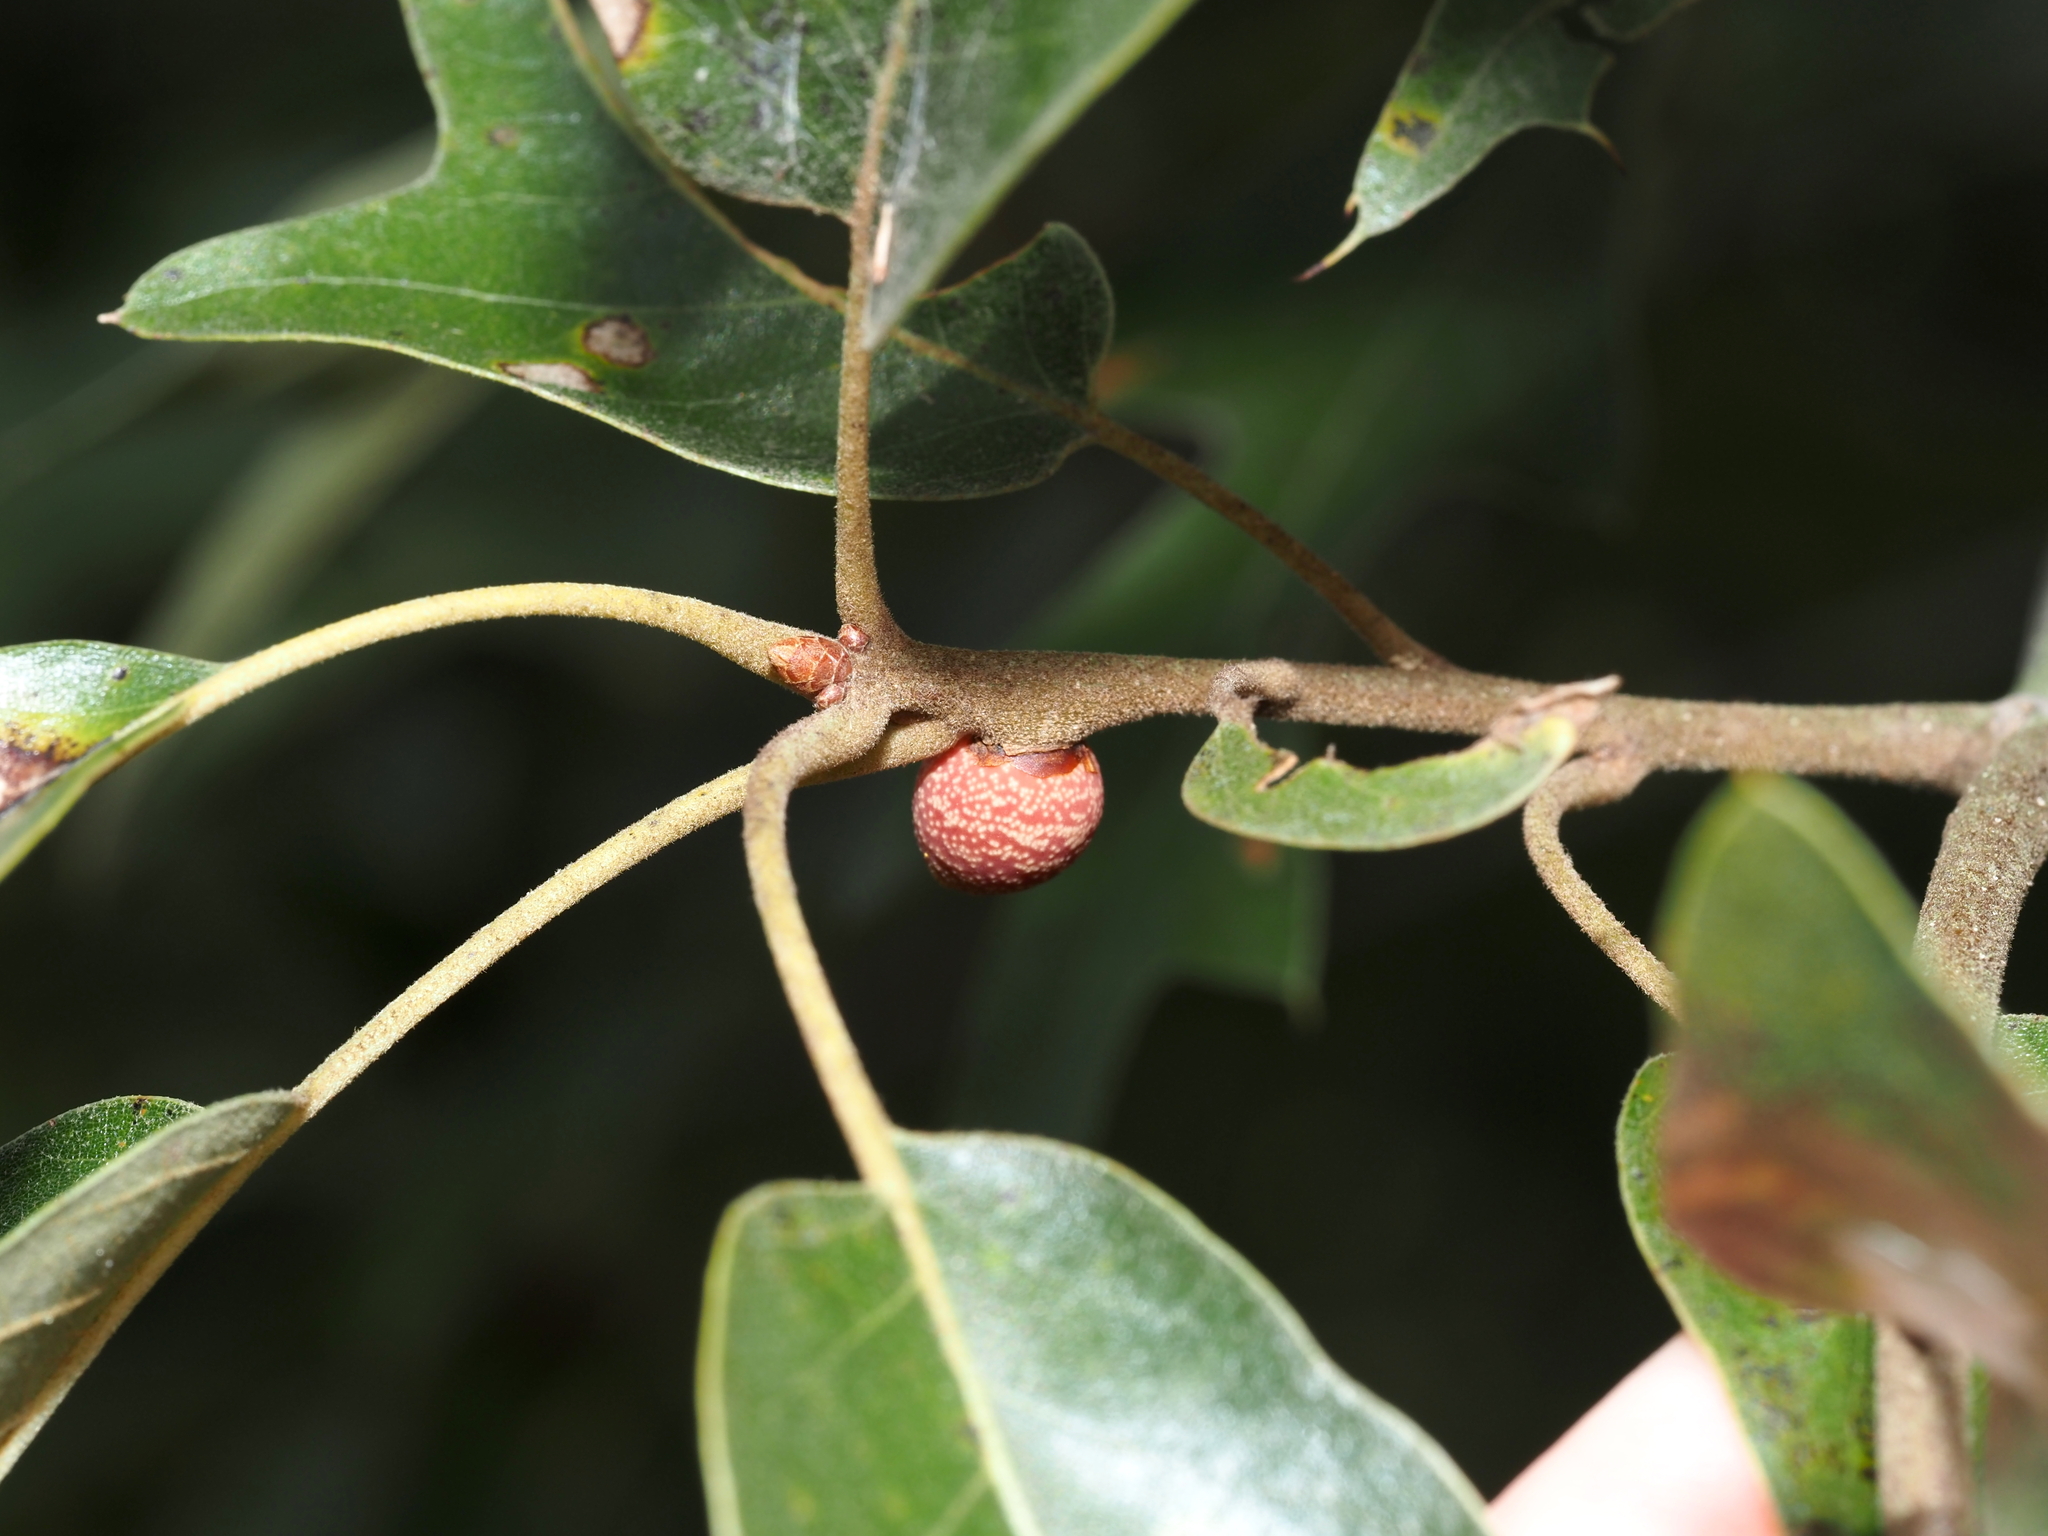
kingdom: Animalia
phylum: Arthropoda
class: Insecta
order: Hymenoptera
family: Cynipidae
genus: Kokkocynips
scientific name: Kokkocynips imbricariae
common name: Banded bullet gall wasp
